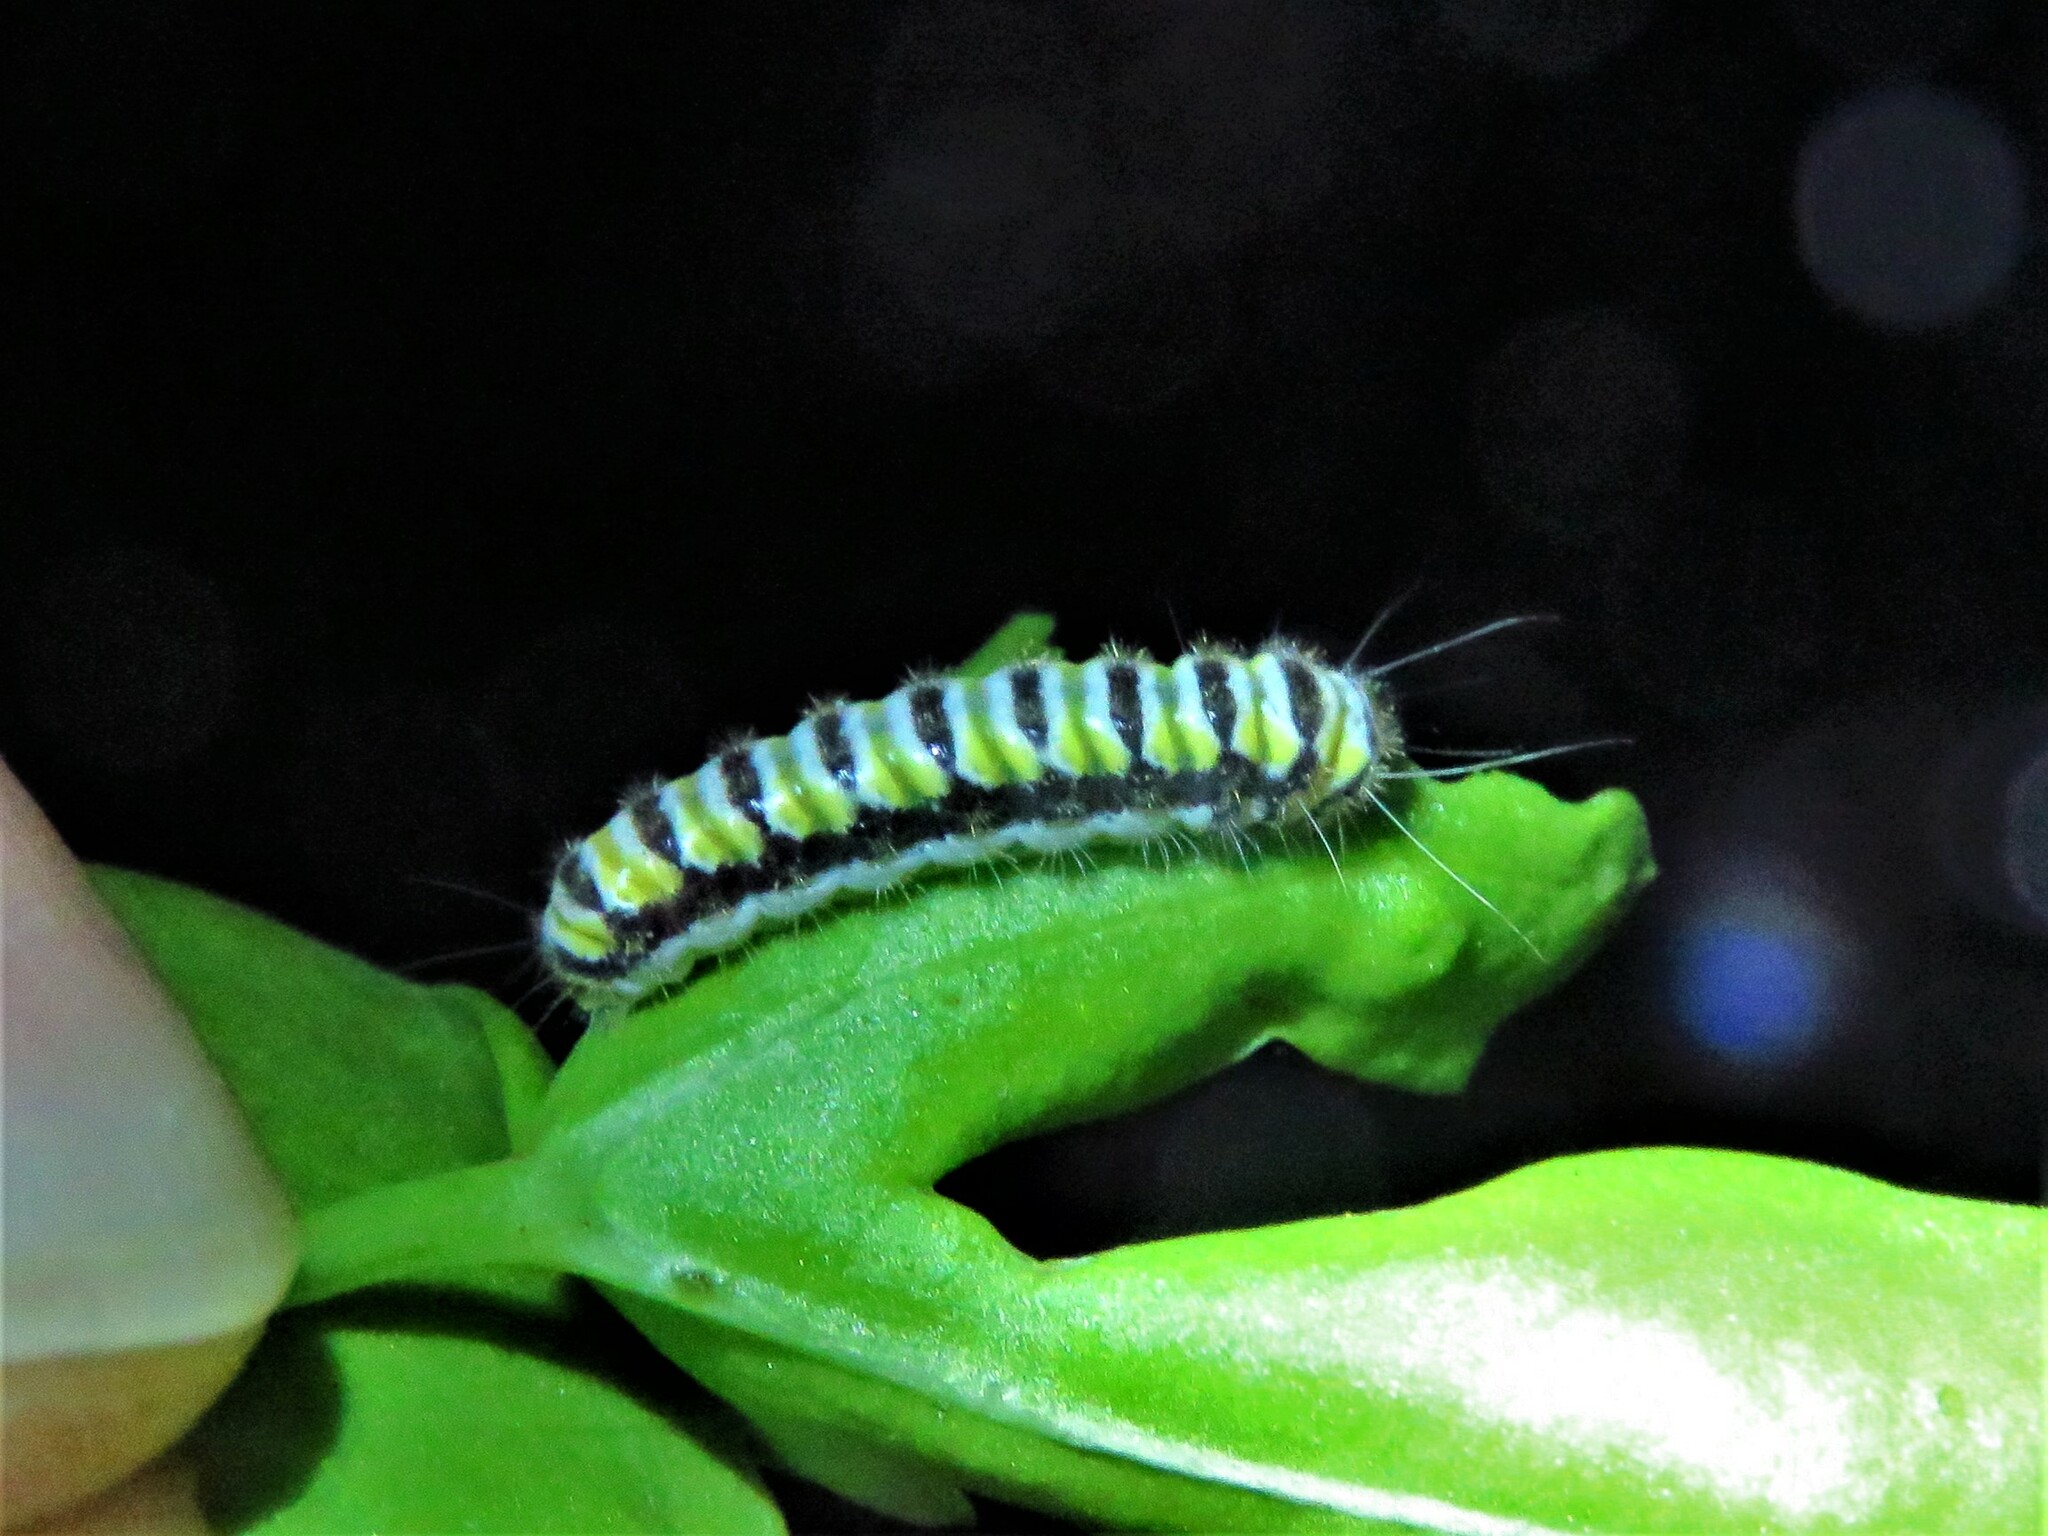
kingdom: Animalia
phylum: Arthropoda
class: Insecta
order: Lepidoptera
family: Zygaenidae
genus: Harrisina
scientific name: Harrisina coracina
